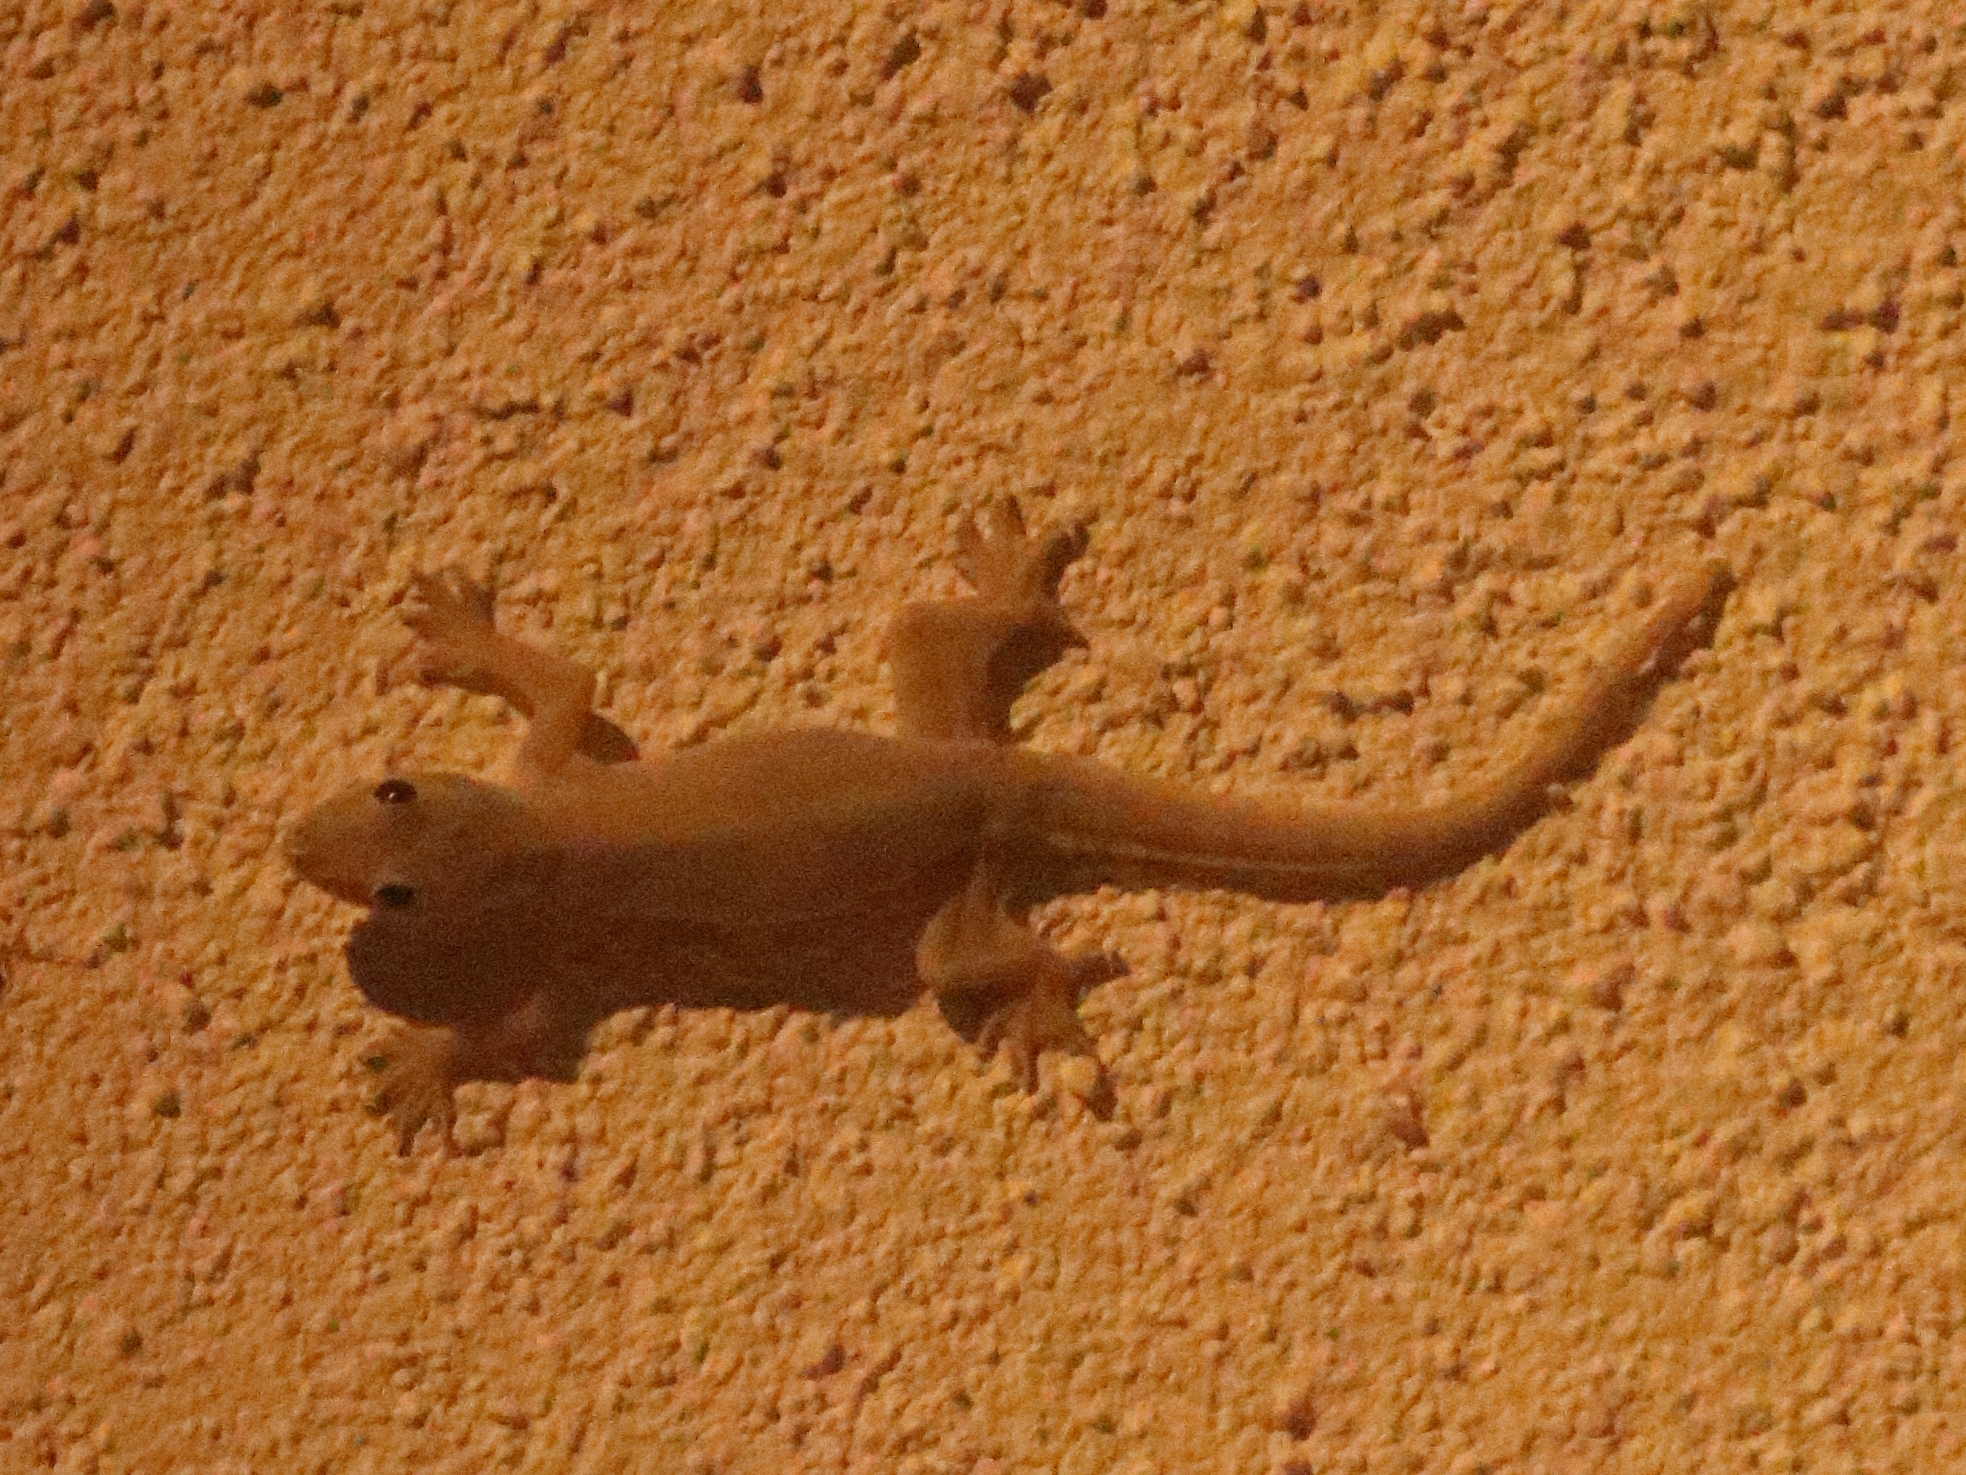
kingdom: Animalia
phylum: Chordata
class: Squamata
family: Gekkonidae
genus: Hemidactylus
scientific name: Hemidactylus platyurus
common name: Flat-tailed house gecko
